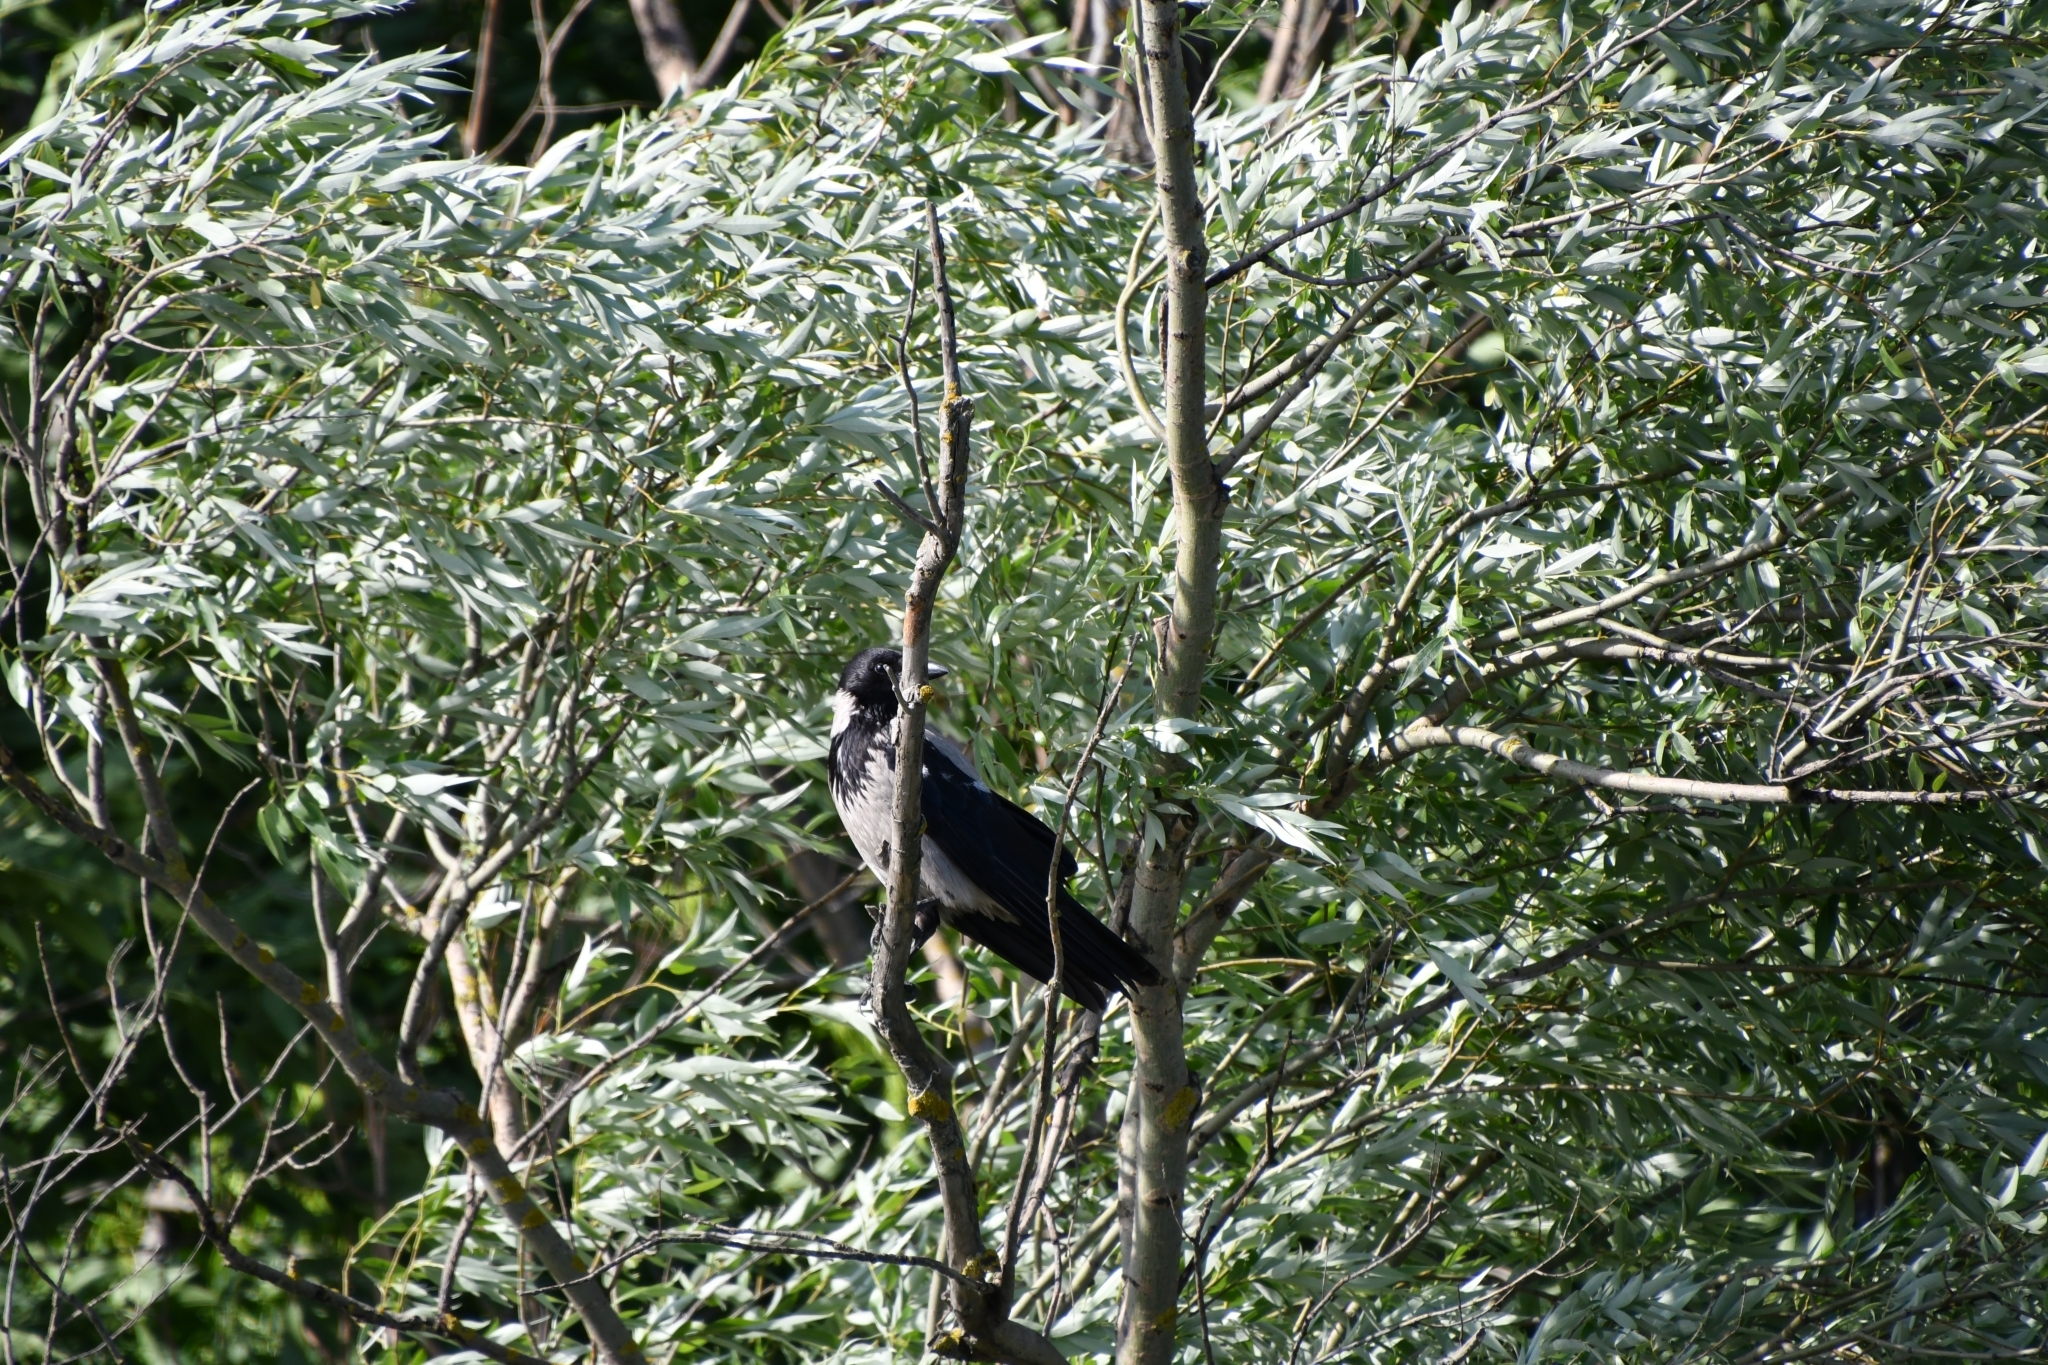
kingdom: Animalia
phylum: Chordata
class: Aves
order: Passeriformes
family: Corvidae
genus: Corvus
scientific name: Corvus cornix
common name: Hooded crow
